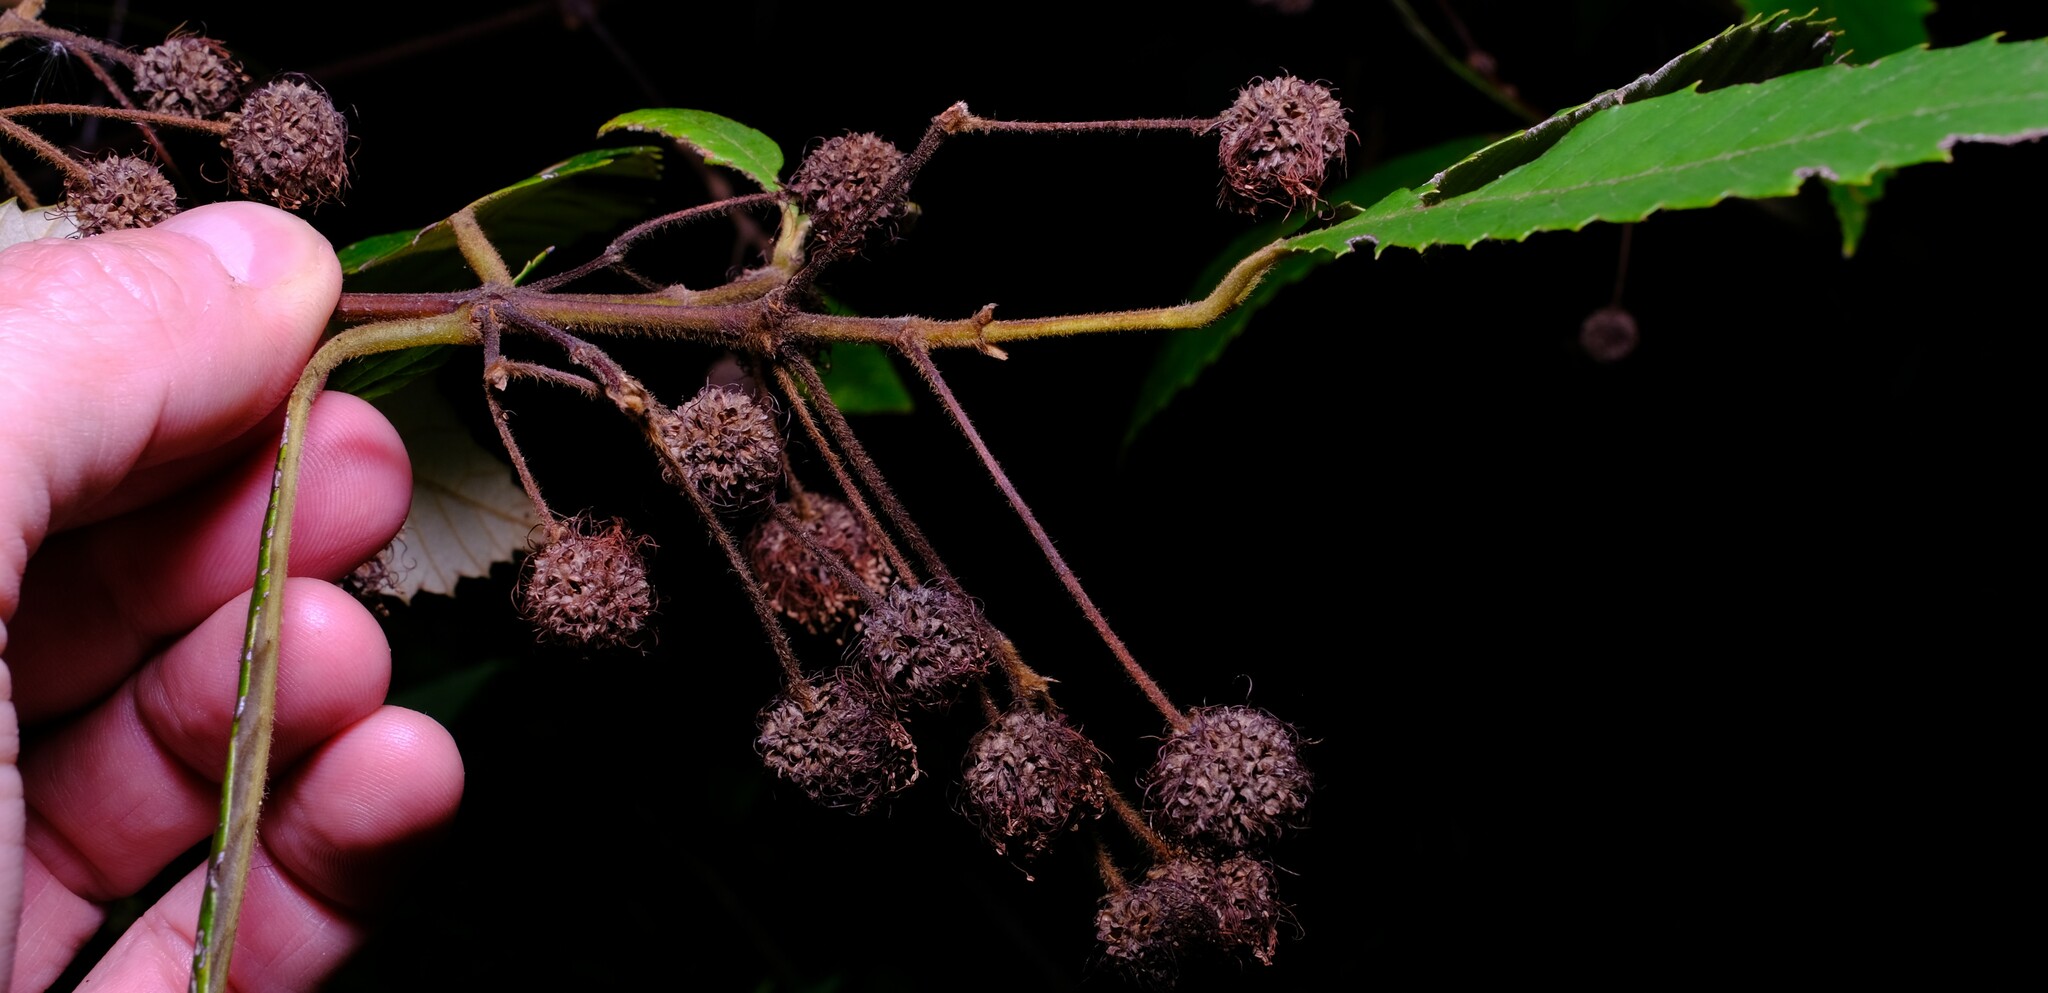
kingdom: Plantae
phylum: Tracheophyta
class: Magnoliopsida
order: Oxalidales
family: Cunoniaceae
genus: Callicoma
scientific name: Callicoma serratifolia
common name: Black wattle
